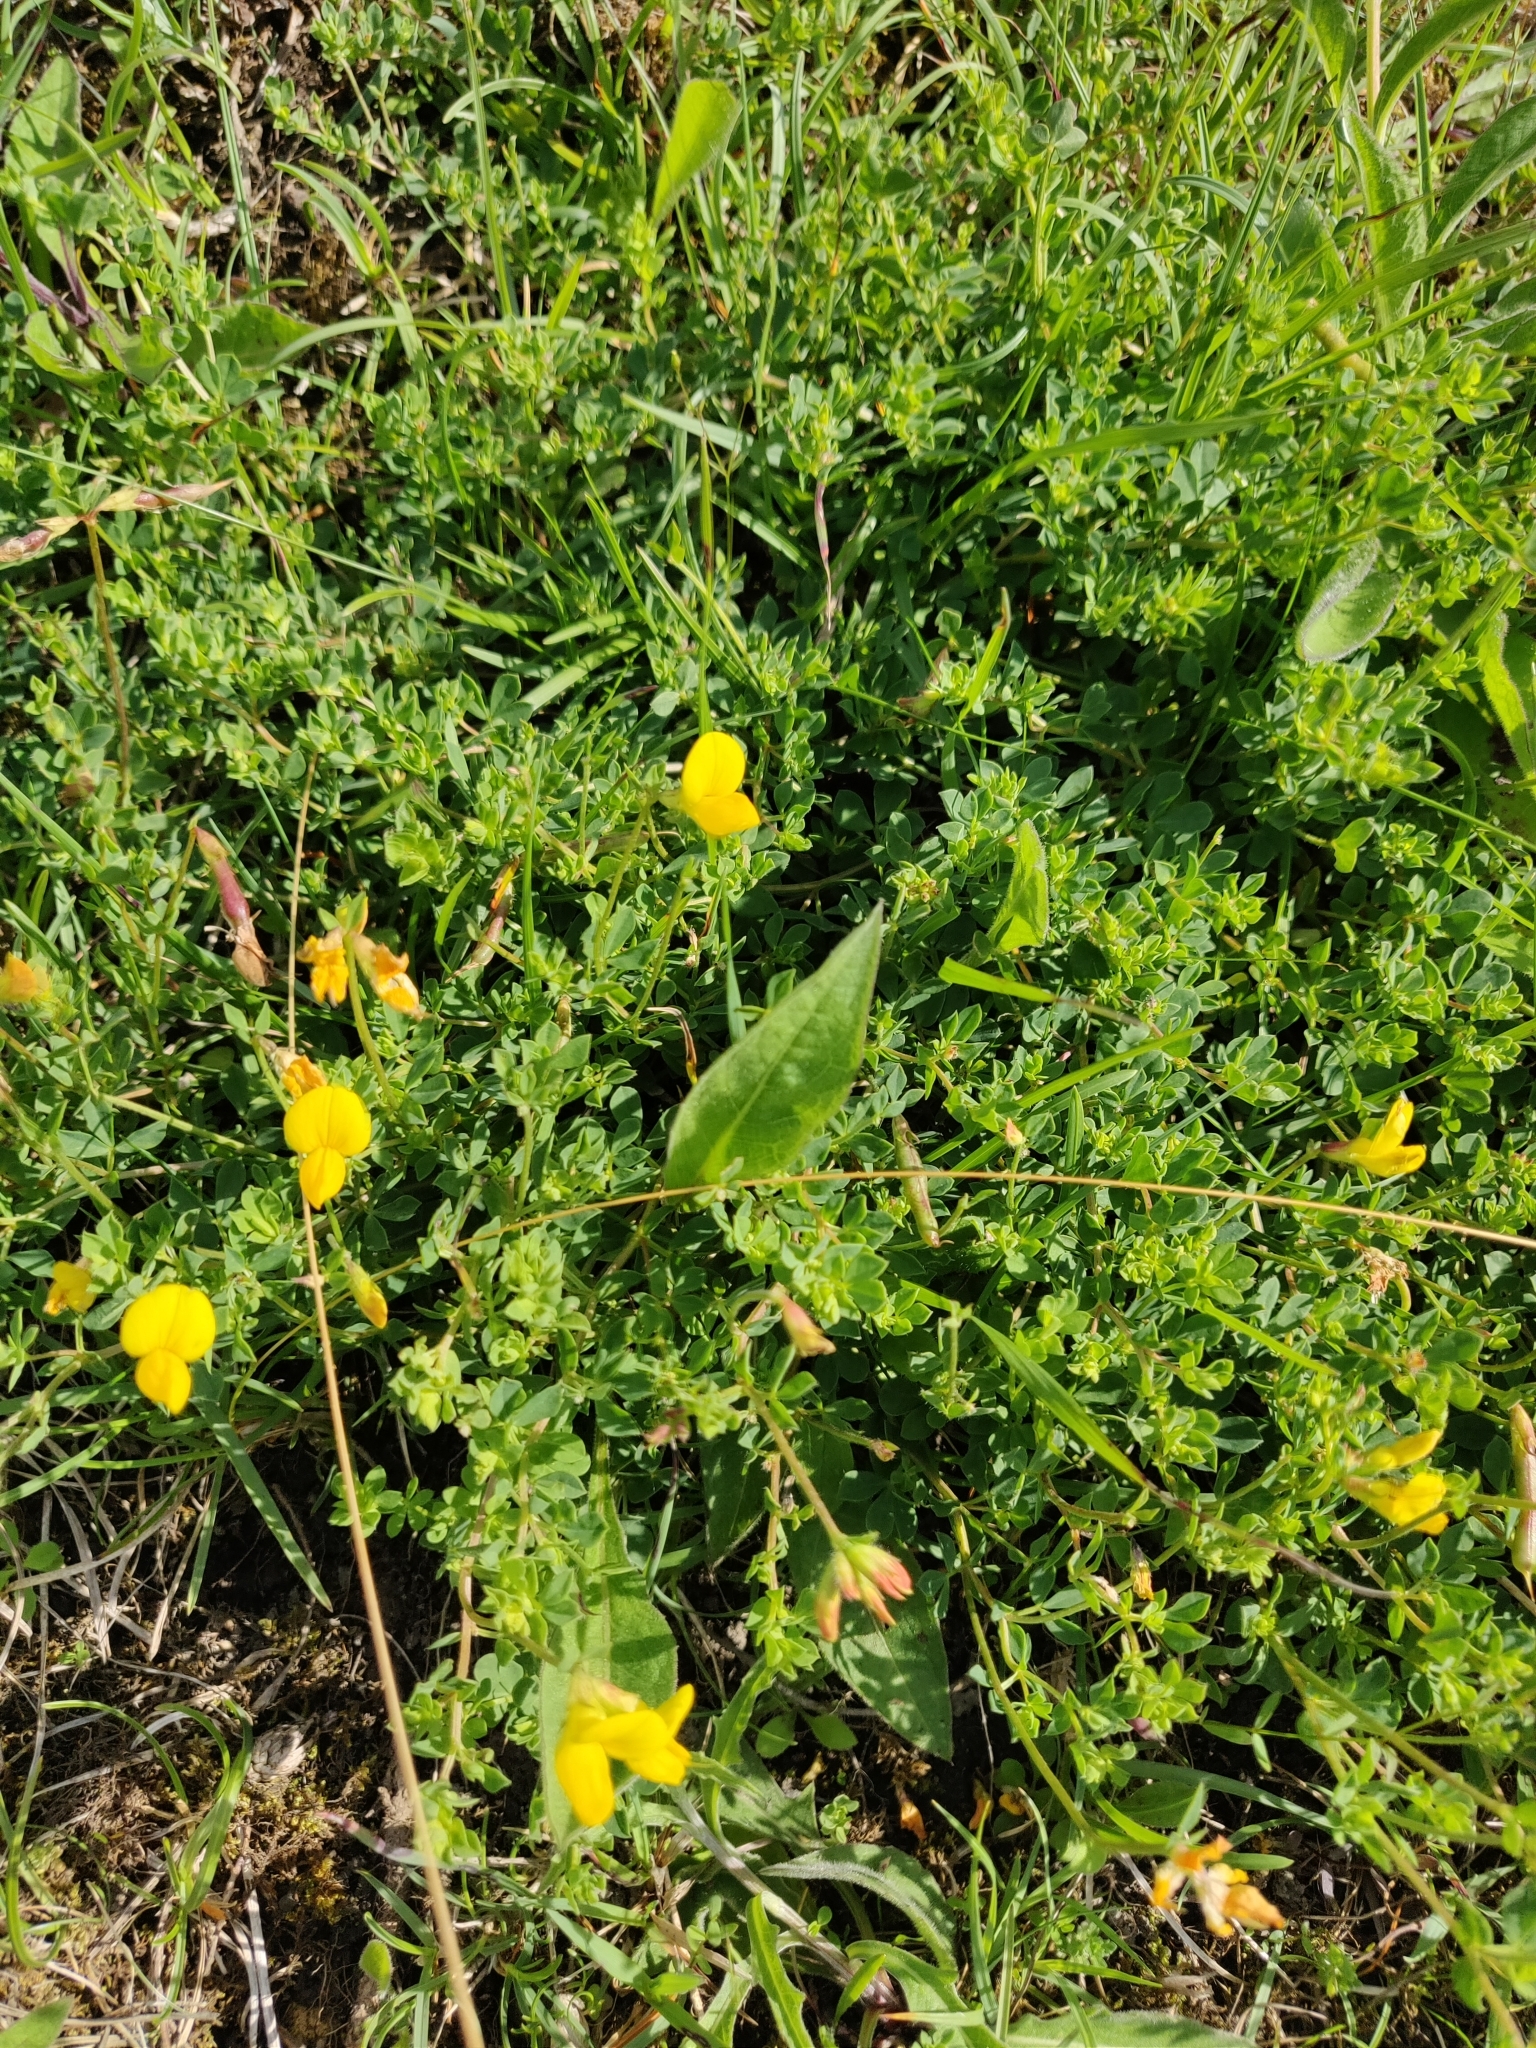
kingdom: Plantae
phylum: Tracheophyta
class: Magnoliopsida
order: Fabales
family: Fabaceae
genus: Lotus
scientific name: Lotus corniculatus
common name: Common bird's-foot-trefoil
